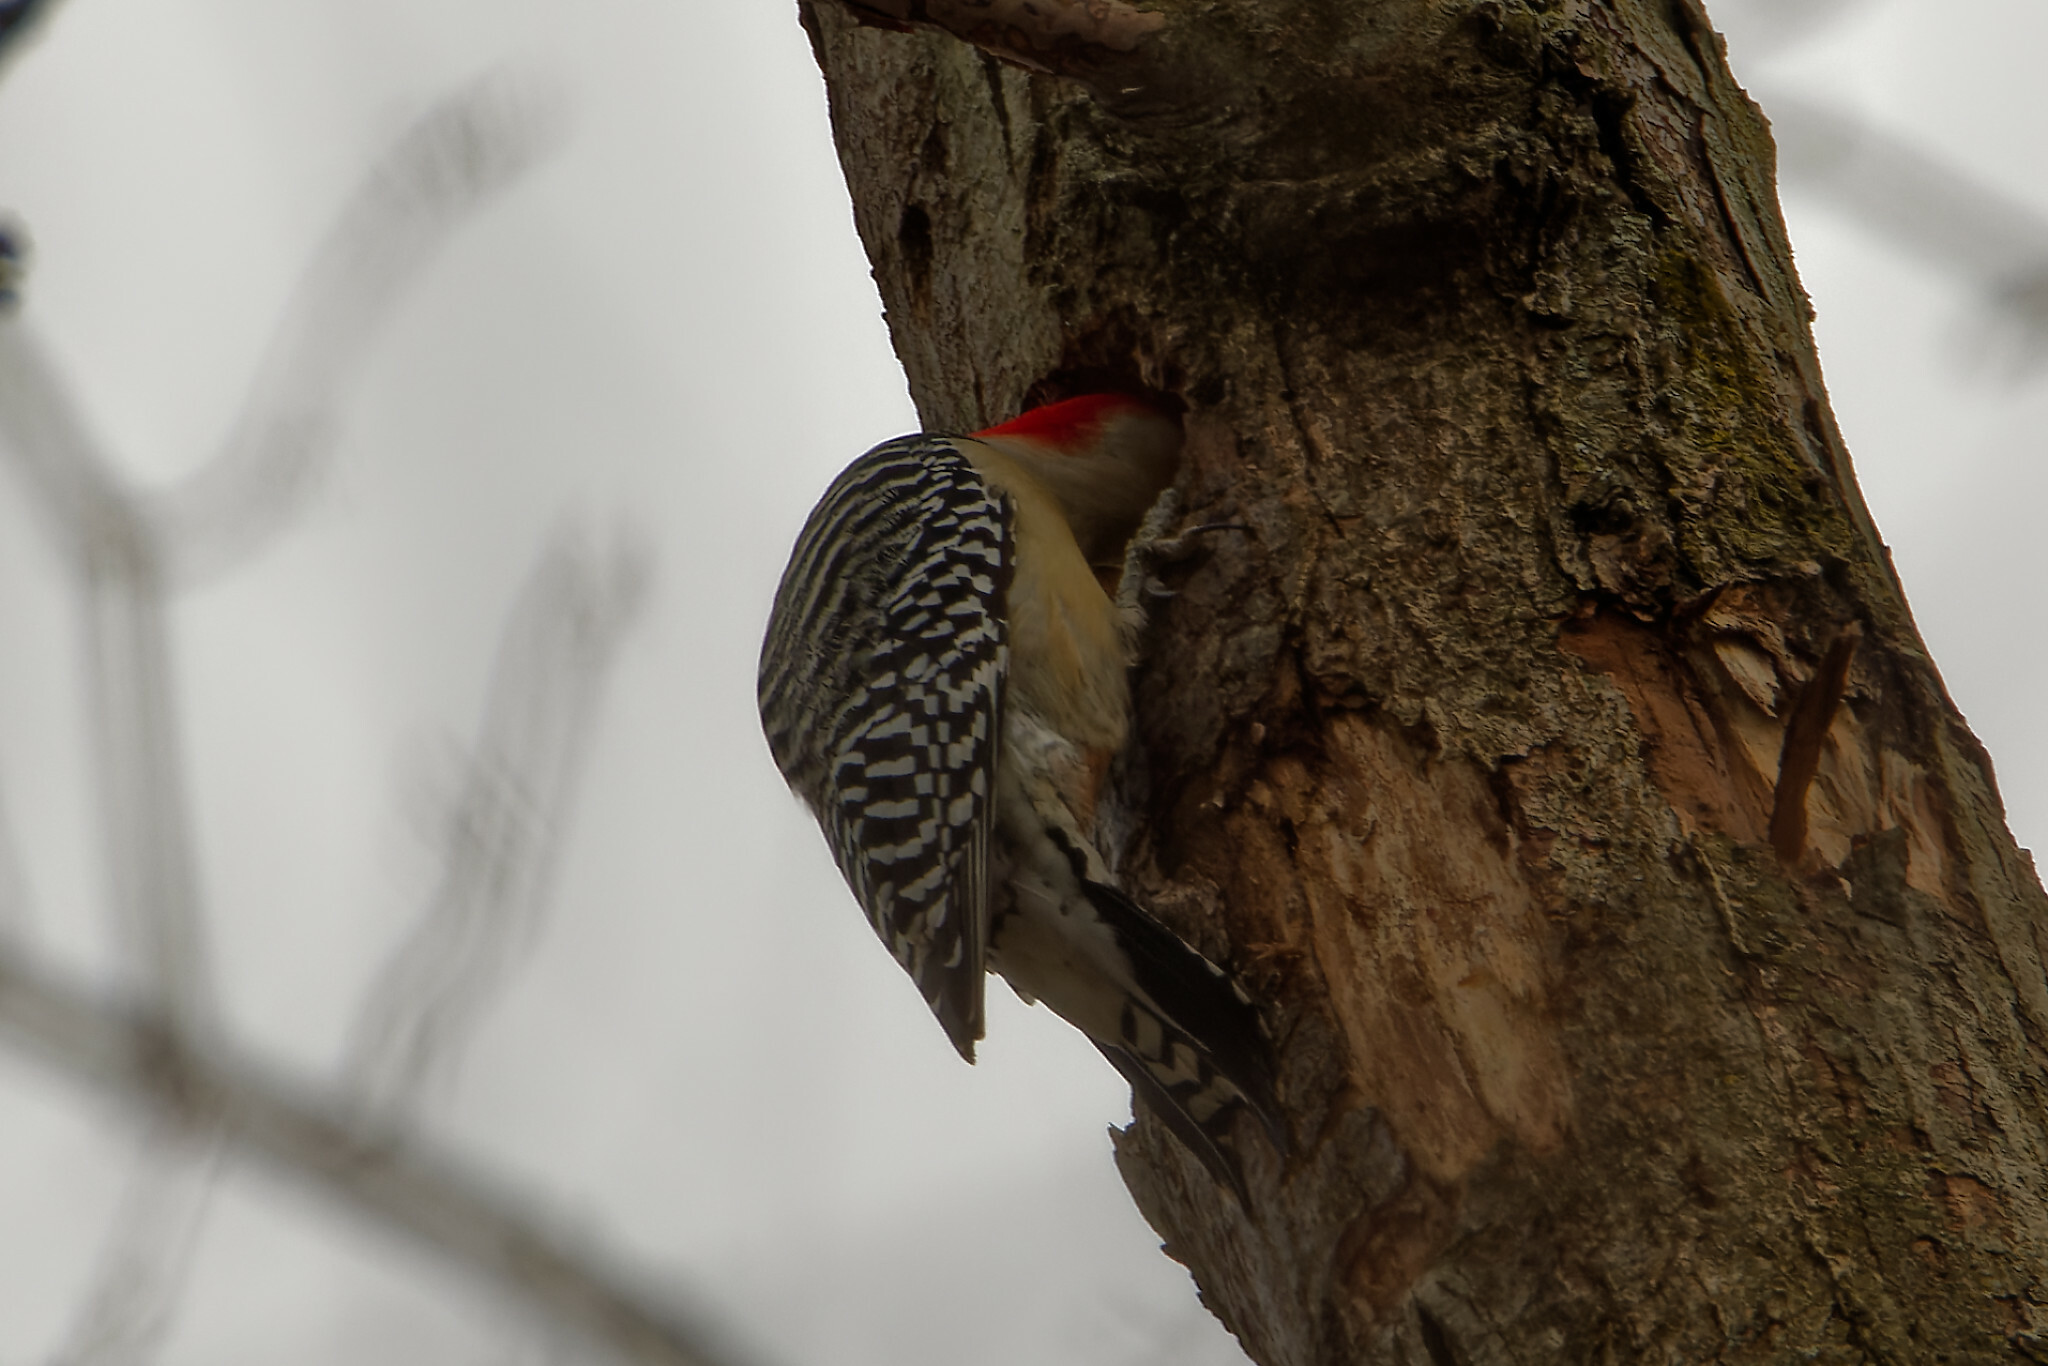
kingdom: Animalia
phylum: Chordata
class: Aves
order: Piciformes
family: Picidae
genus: Melanerpes
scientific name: Melanerpes carolinus
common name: Red-bellied woodpecker
